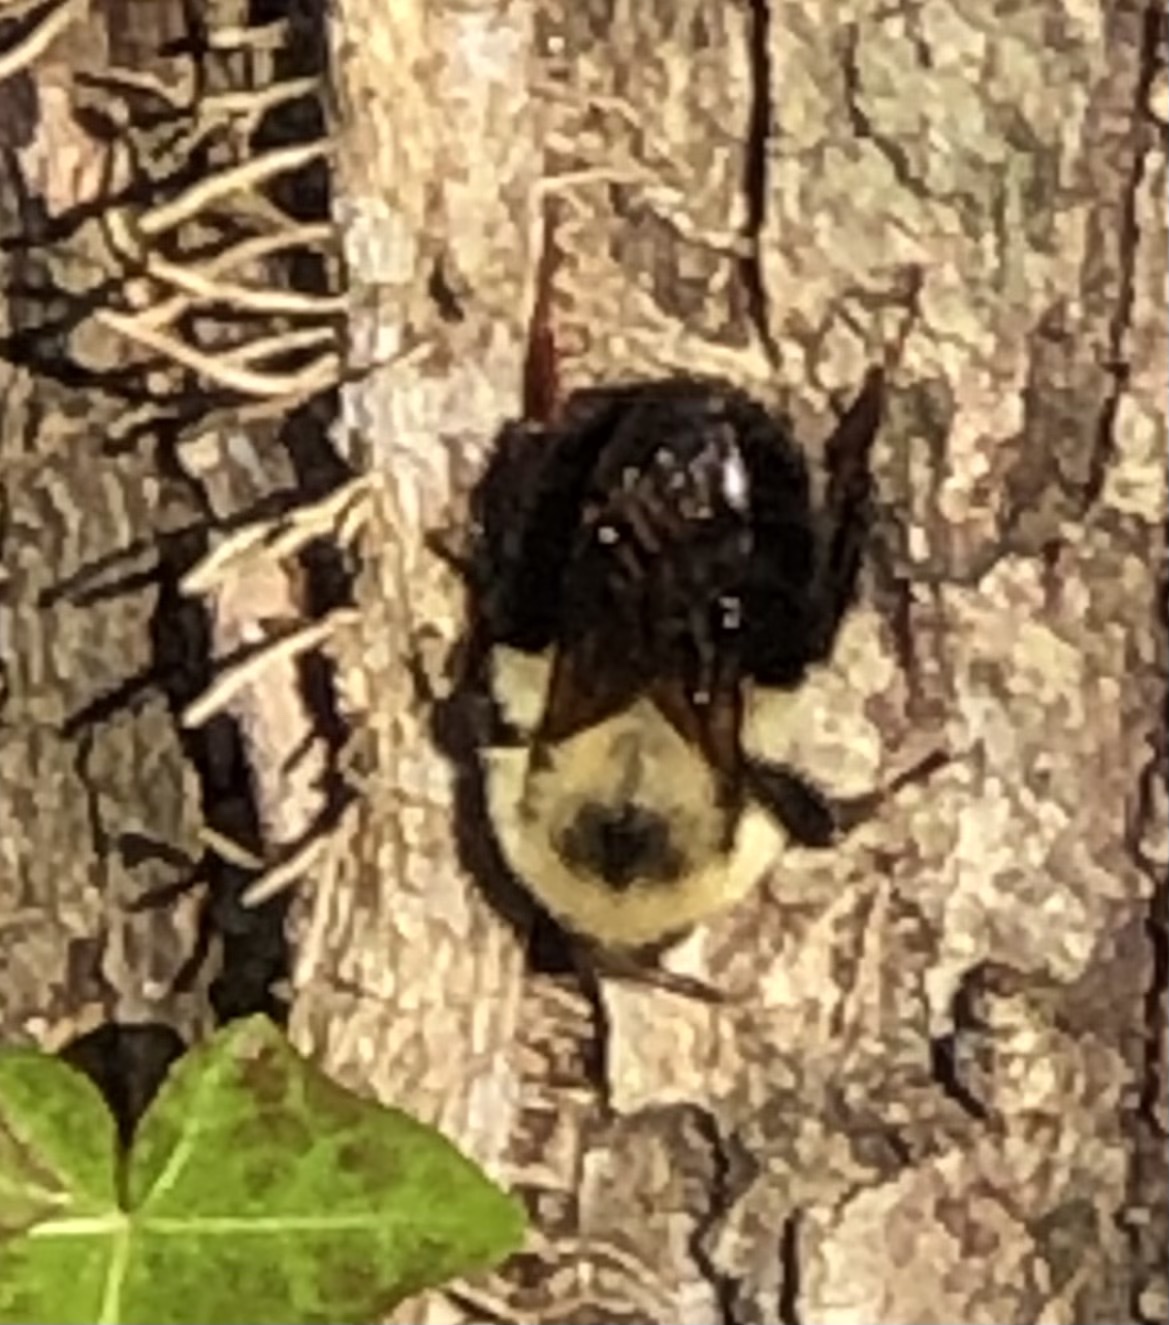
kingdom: Animalia
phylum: Arthropoda
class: Insecta
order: Hymenoptera
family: Apidae
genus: Bombus
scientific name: Bombus bimaculatus
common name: Two-spotted bumble bee
